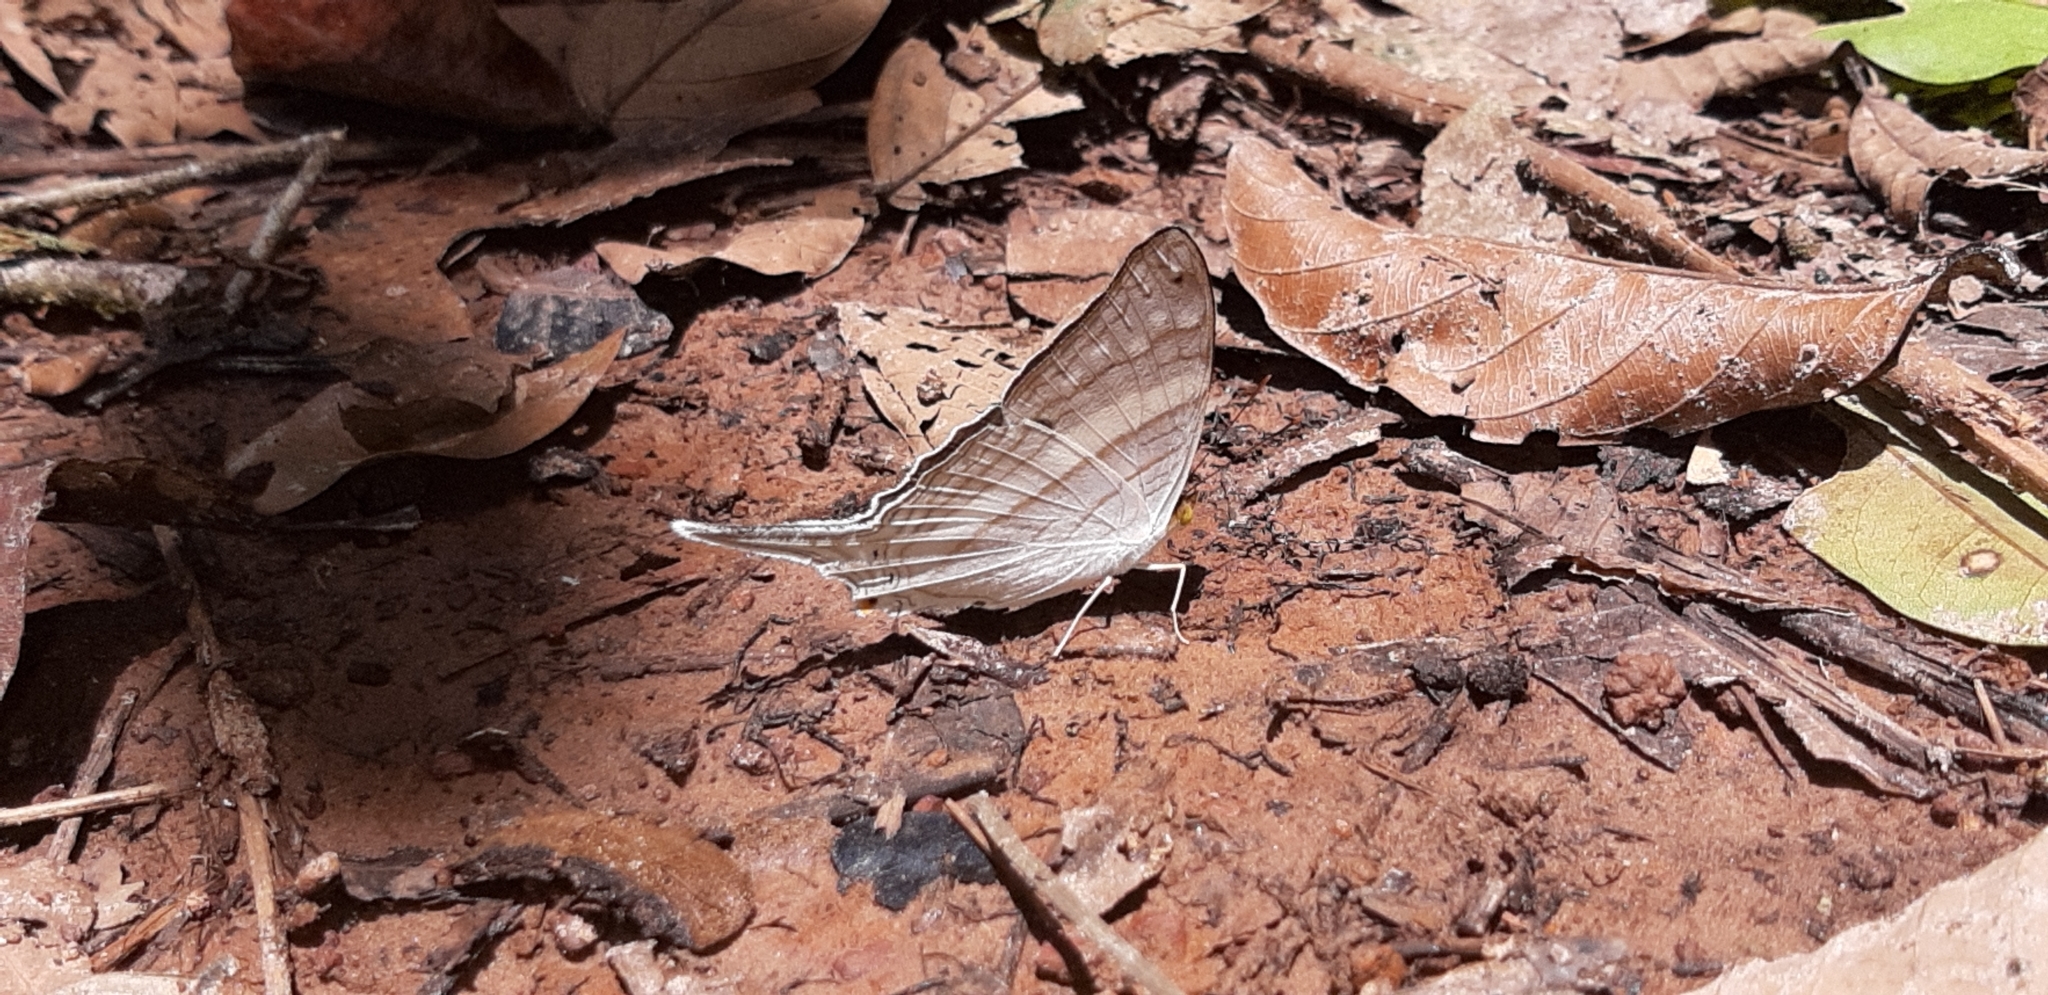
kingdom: Animalia
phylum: Arthropoda
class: Insecta
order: Lepidoptera
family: Nymphalidae
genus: Marpesia
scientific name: Marpesia crethon
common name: Crethon daggerwing
